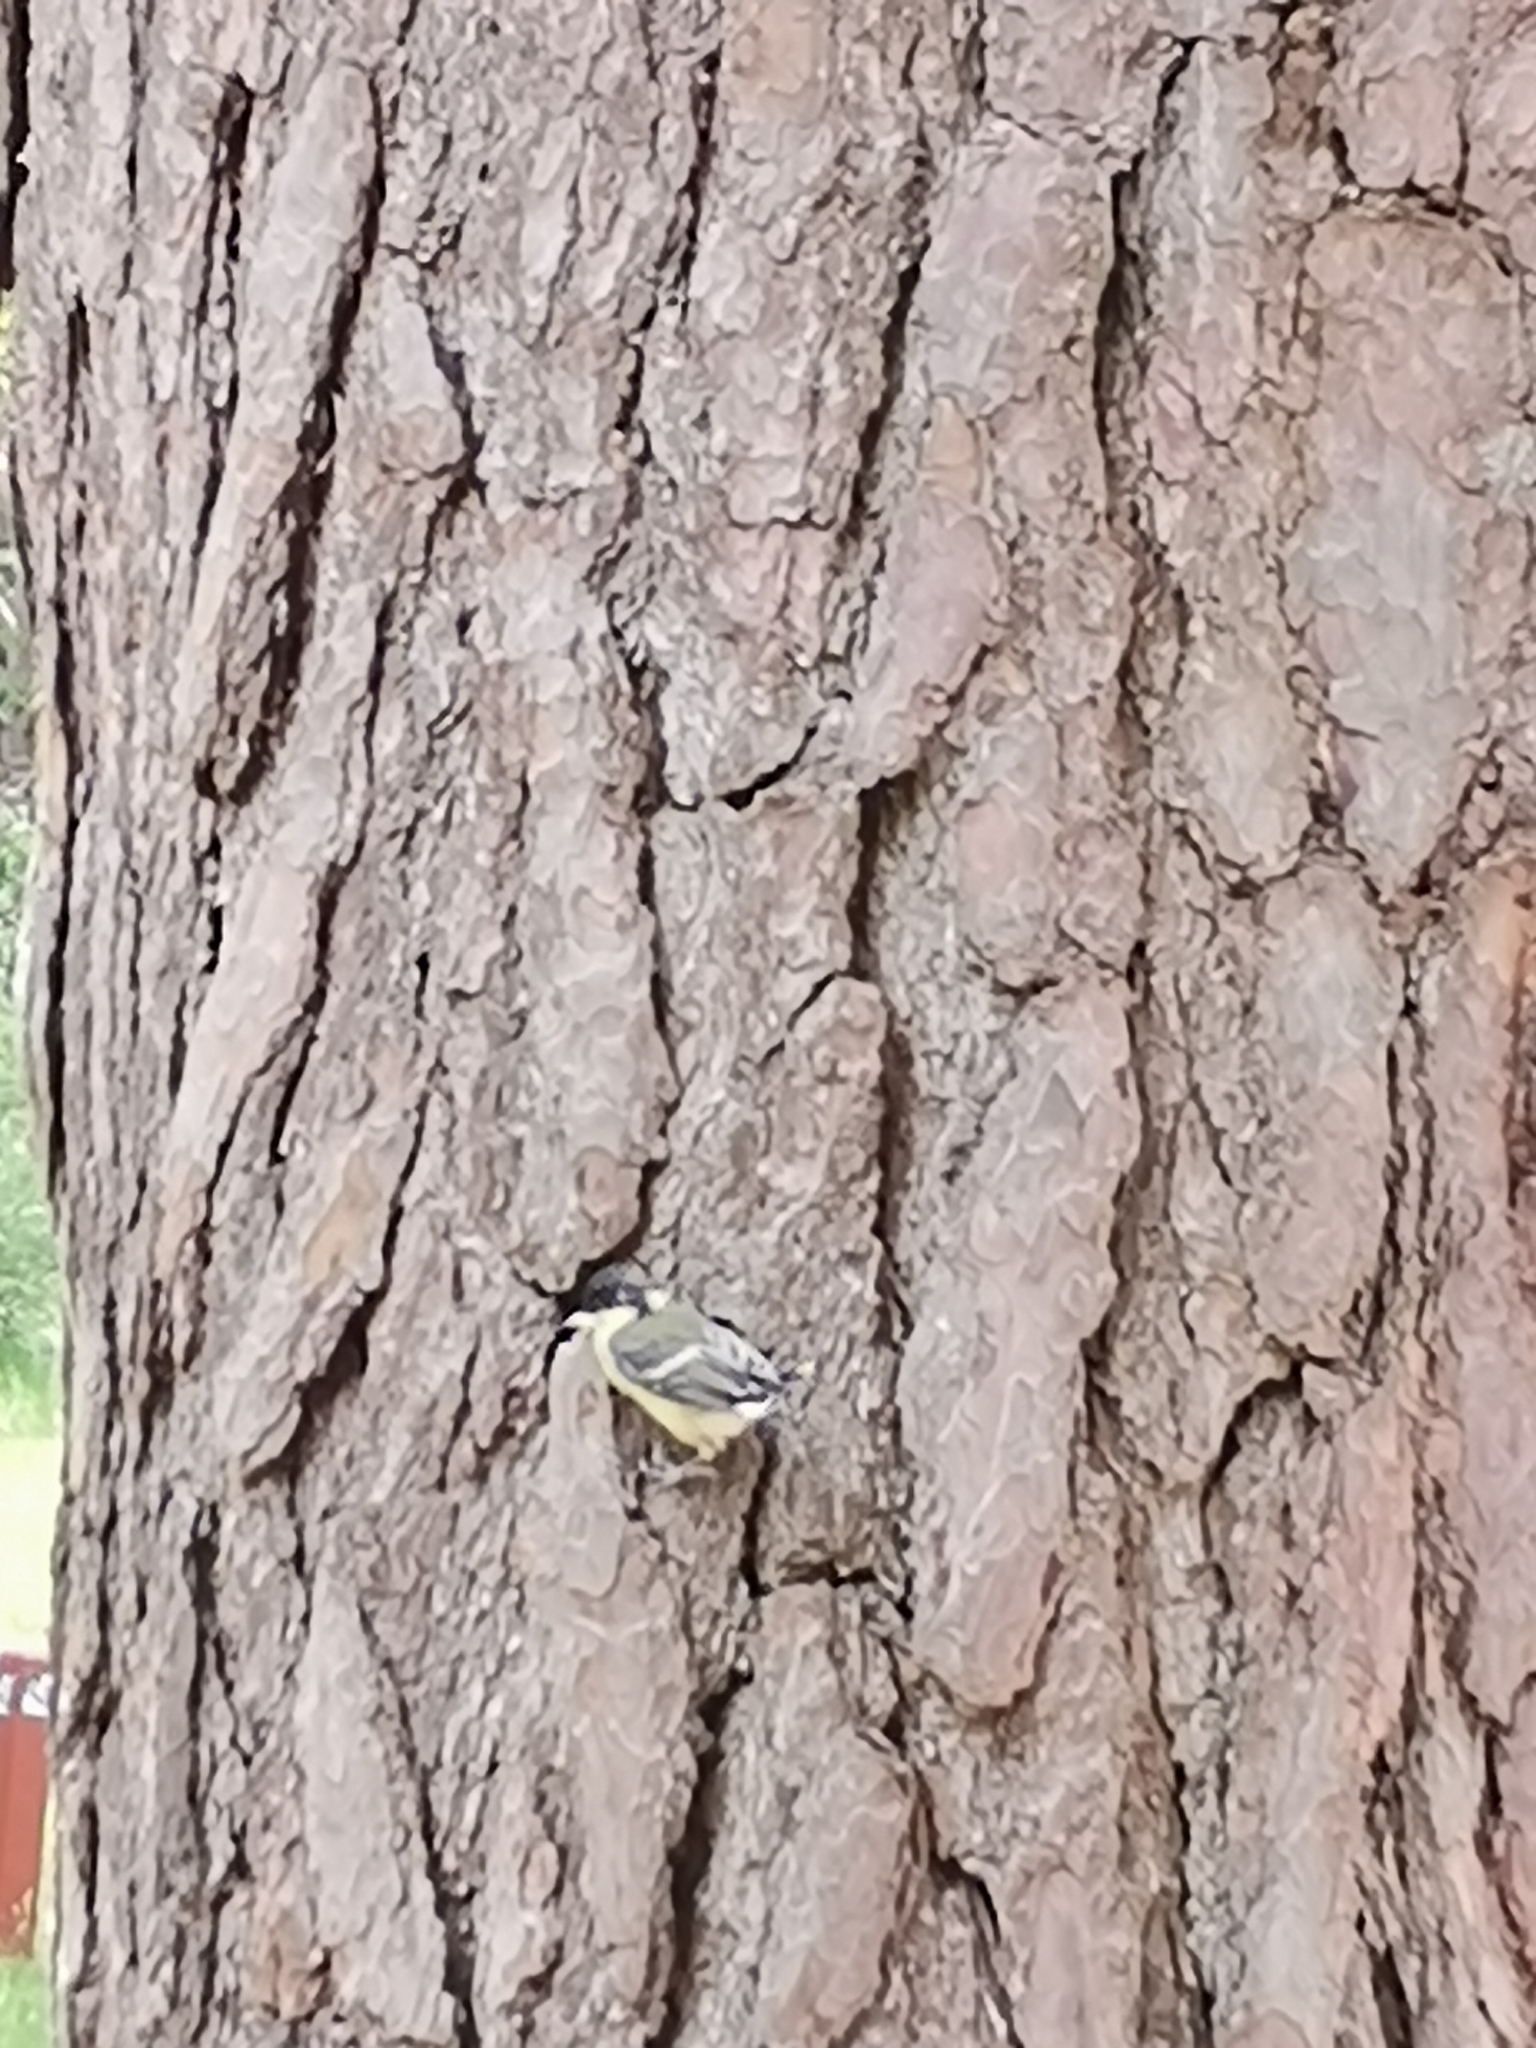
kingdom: Animalia
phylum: Chordata
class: Aves
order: Passeriformes
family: Paridae
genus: Parus
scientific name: Parus major
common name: Great tit
